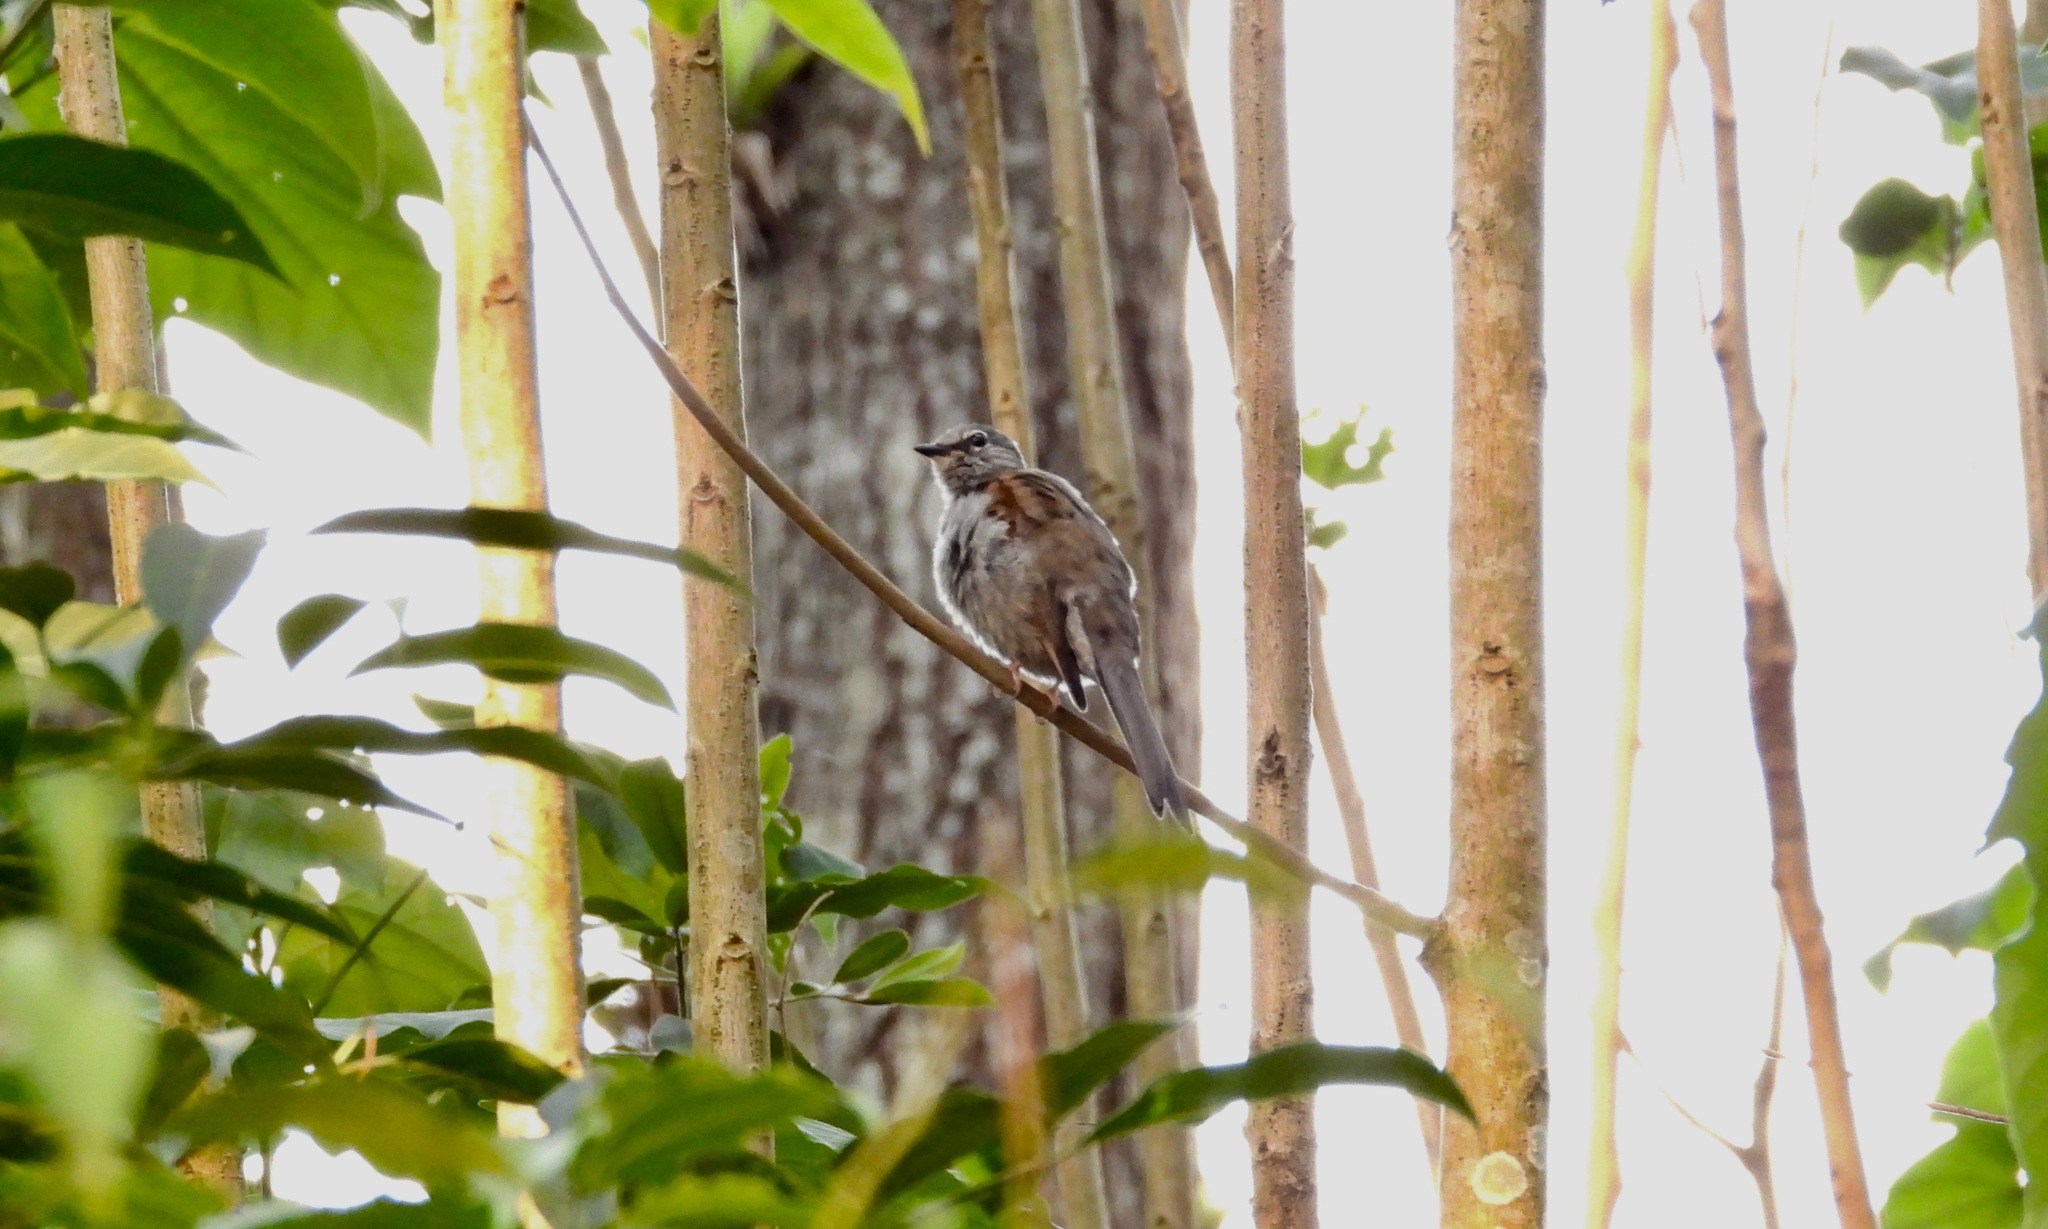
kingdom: Animalia
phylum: Chordata
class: Aves
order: Passeriformes
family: Turdidae
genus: Myadestes
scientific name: Myadestes occidentalis
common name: Brown-backed solitaire
